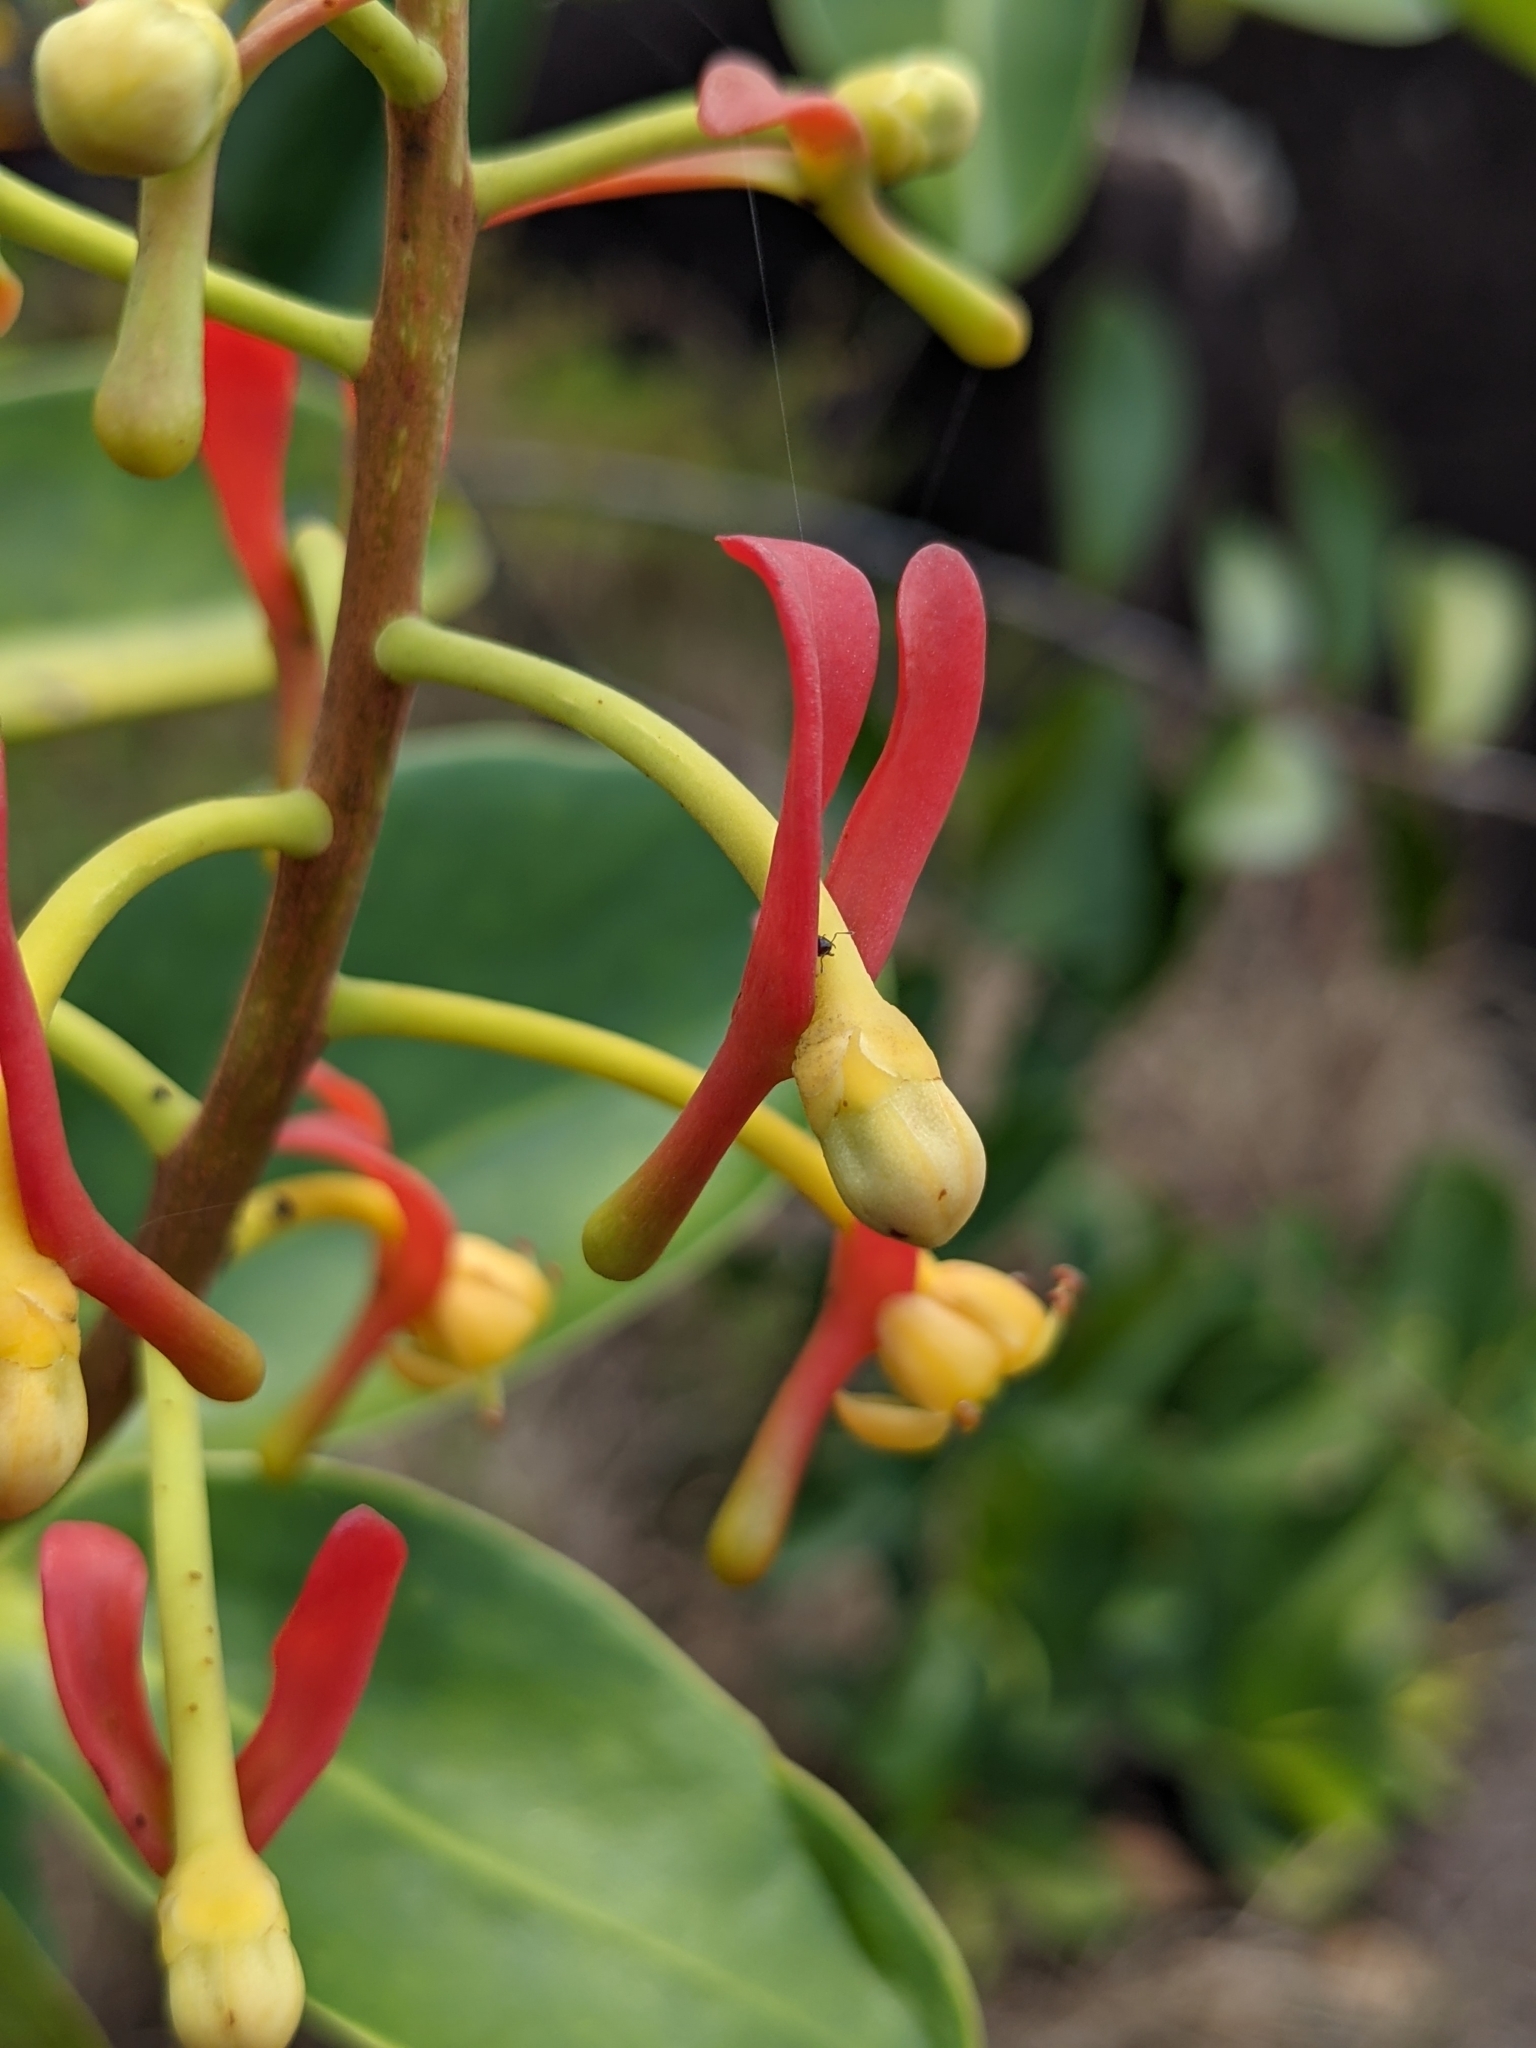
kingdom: Plantae
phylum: Tracheophyta
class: Magnoliopsida
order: Ericales
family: Marcgraviaceae
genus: Souroubea
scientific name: Souroubea guianensis
